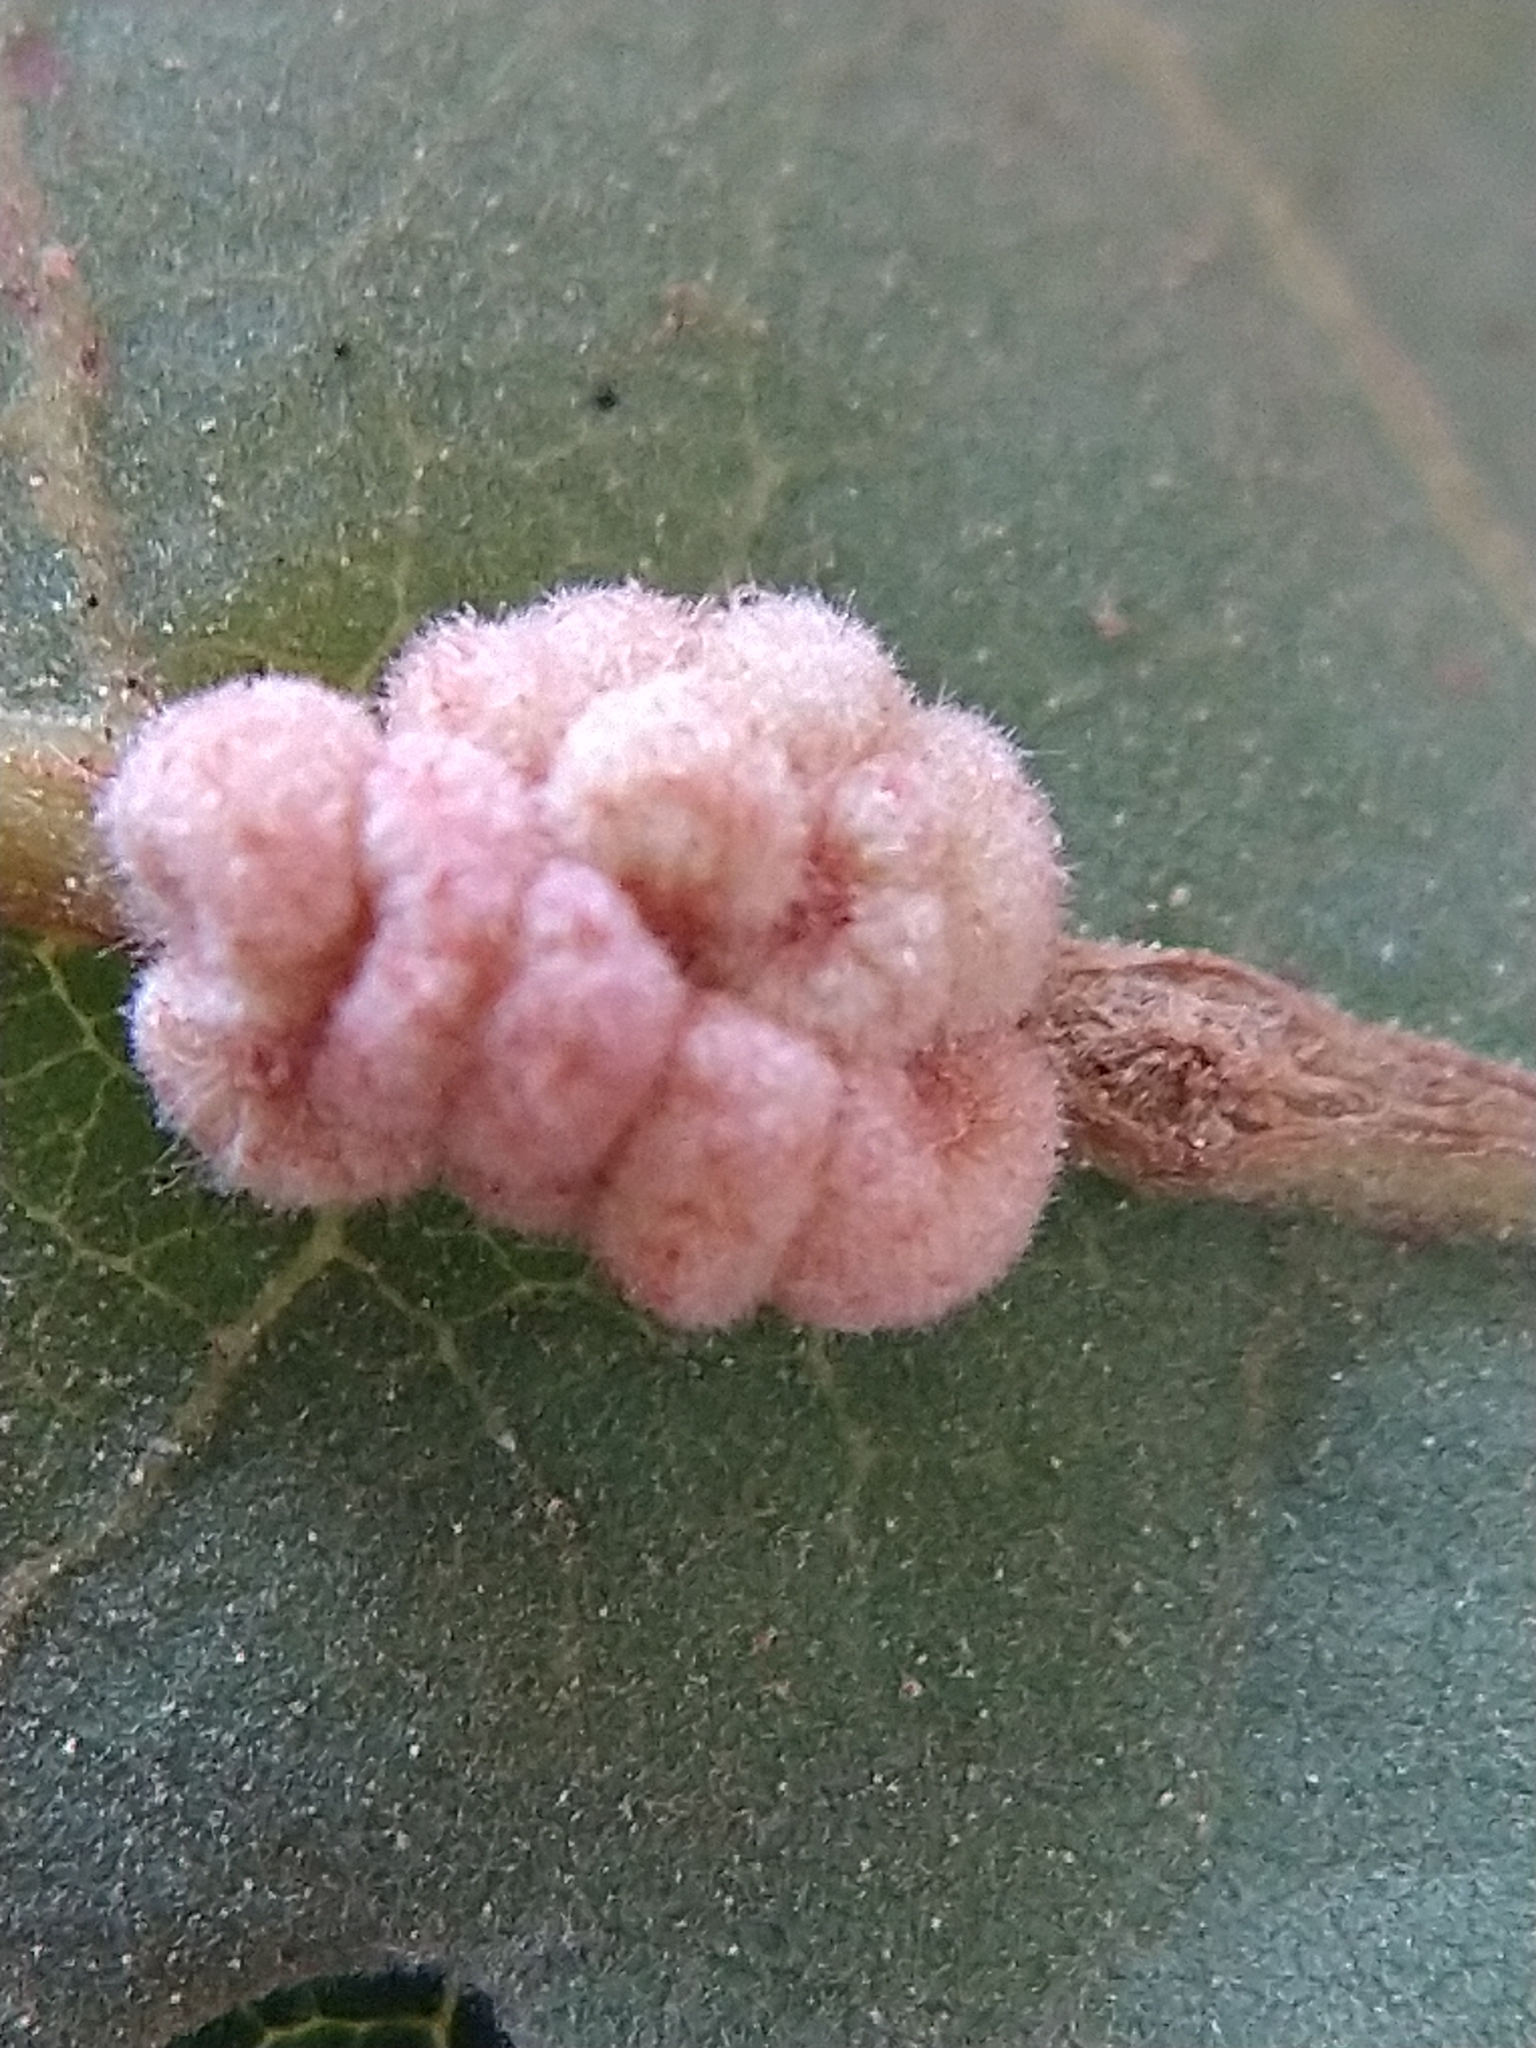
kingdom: Animalia
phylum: Arthropoda
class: Insecta
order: Hymenoptera
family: Cynipidae
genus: Andricus
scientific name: Andricus
